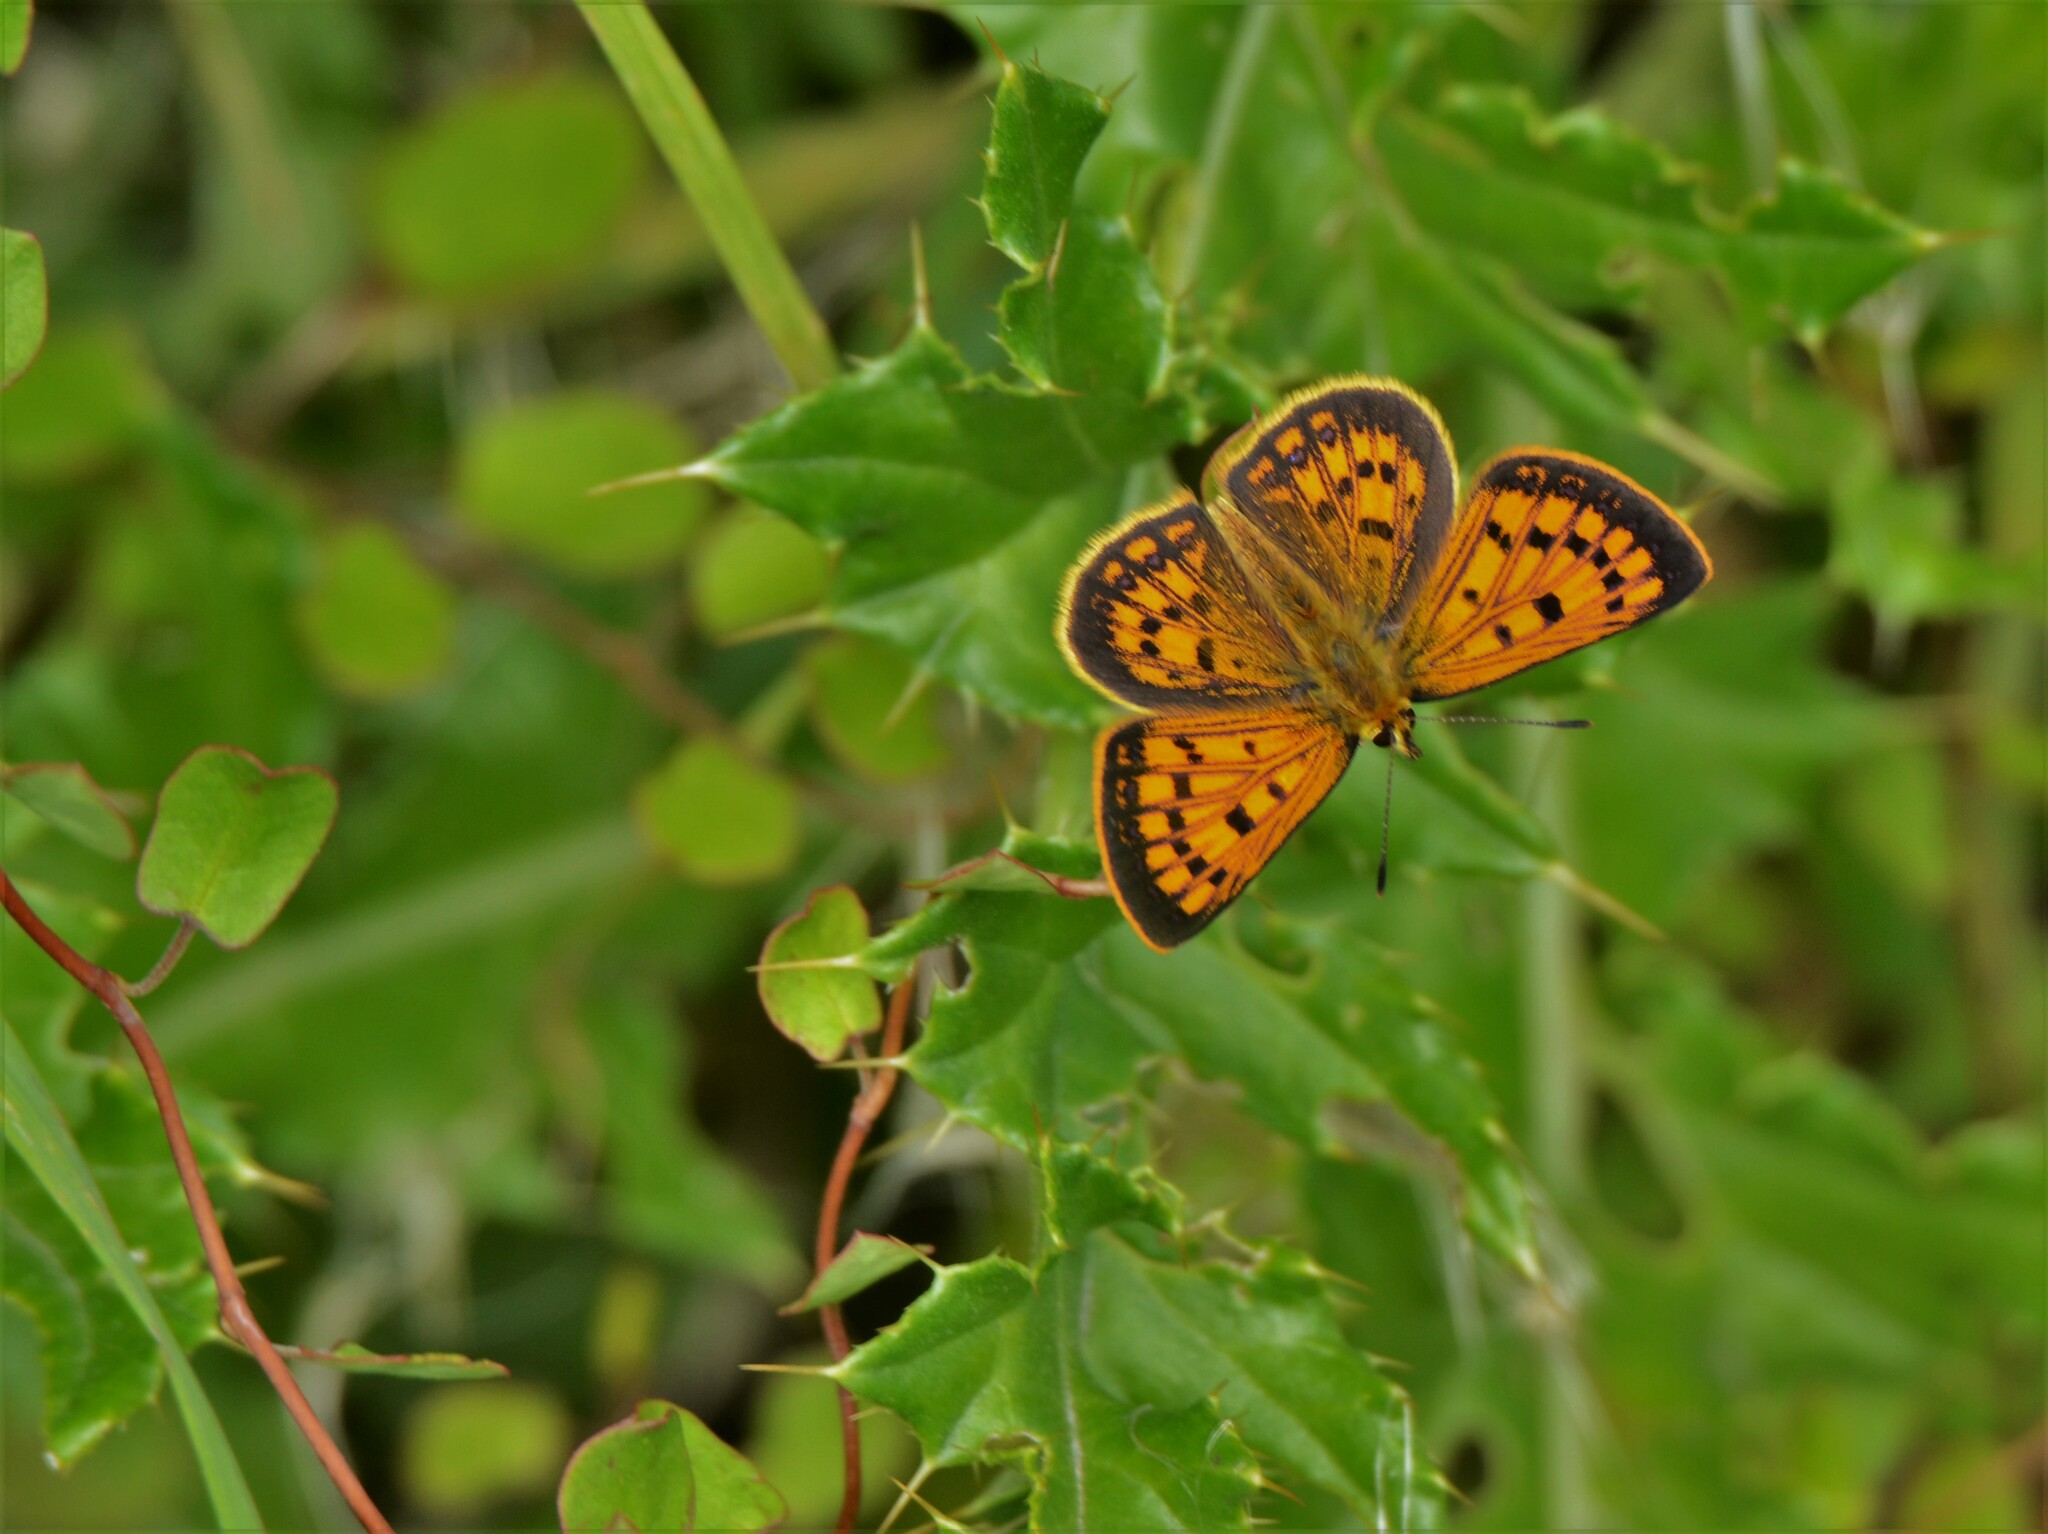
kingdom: Animalia
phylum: Arthropoda
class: Insecta
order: Lepidoptera
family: Lycaenidae
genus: Lycaena
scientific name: Lycaena
